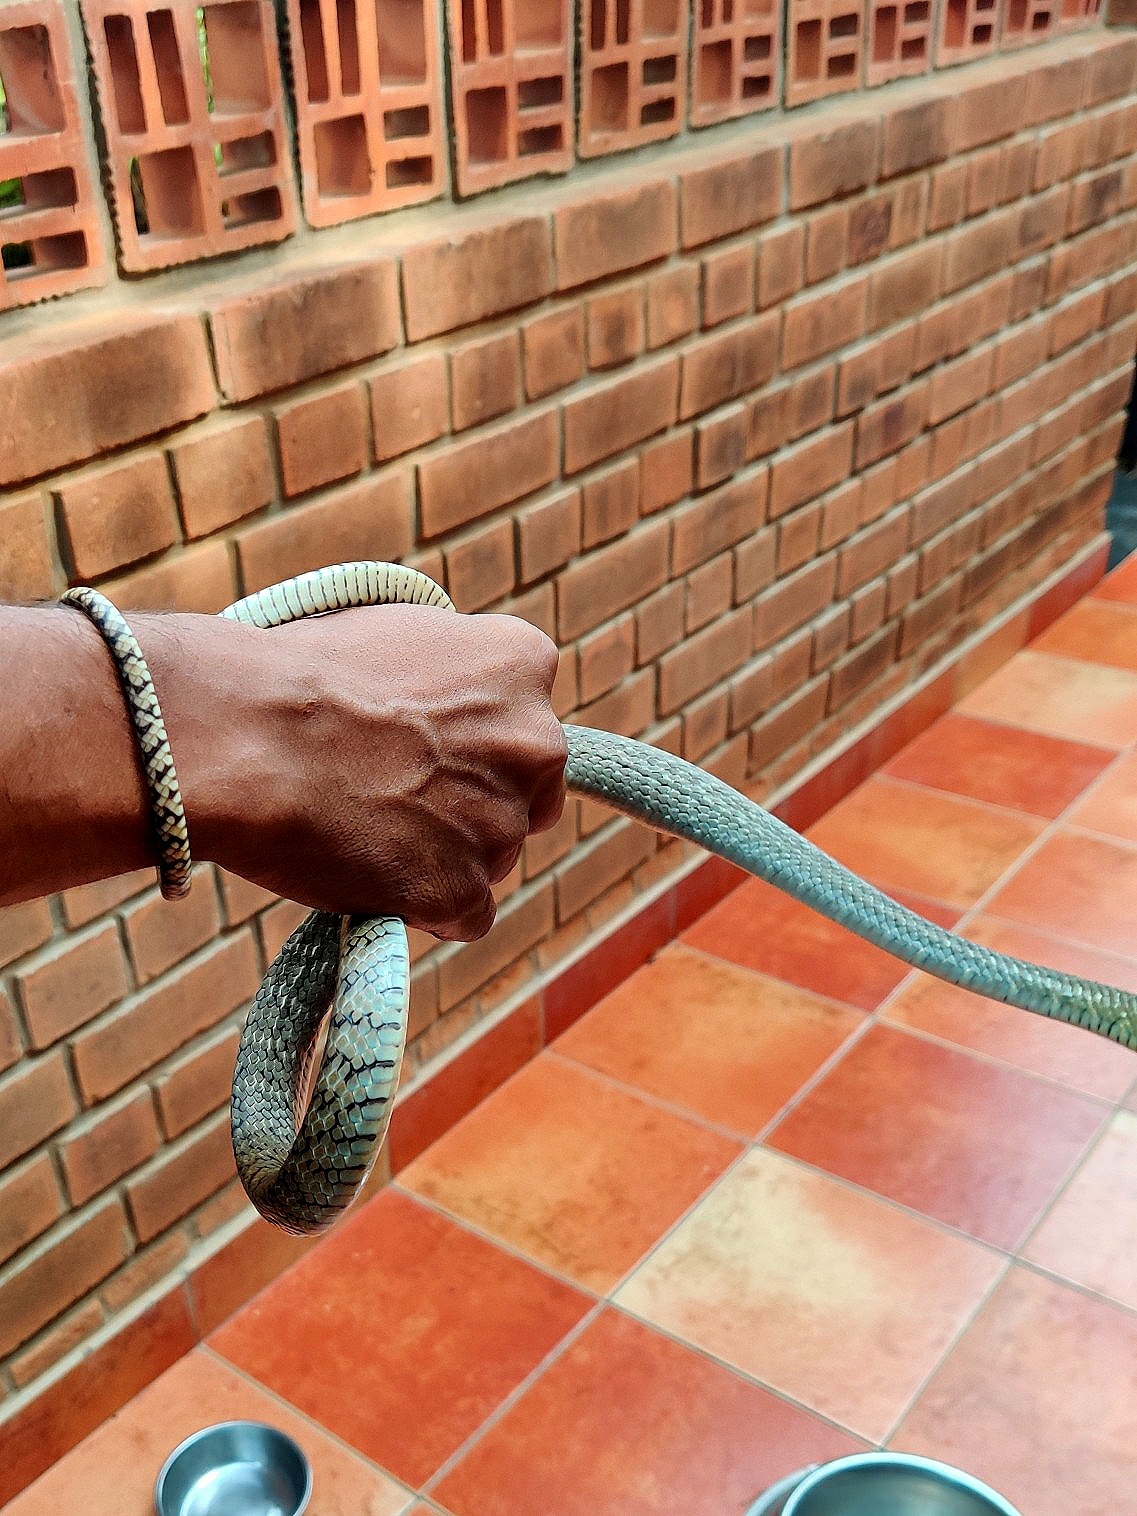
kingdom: Animalia
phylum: Chordata
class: Squamata
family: Colubridae
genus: Ptyas
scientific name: Ptyas mucosa
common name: Oriental ratsnake
